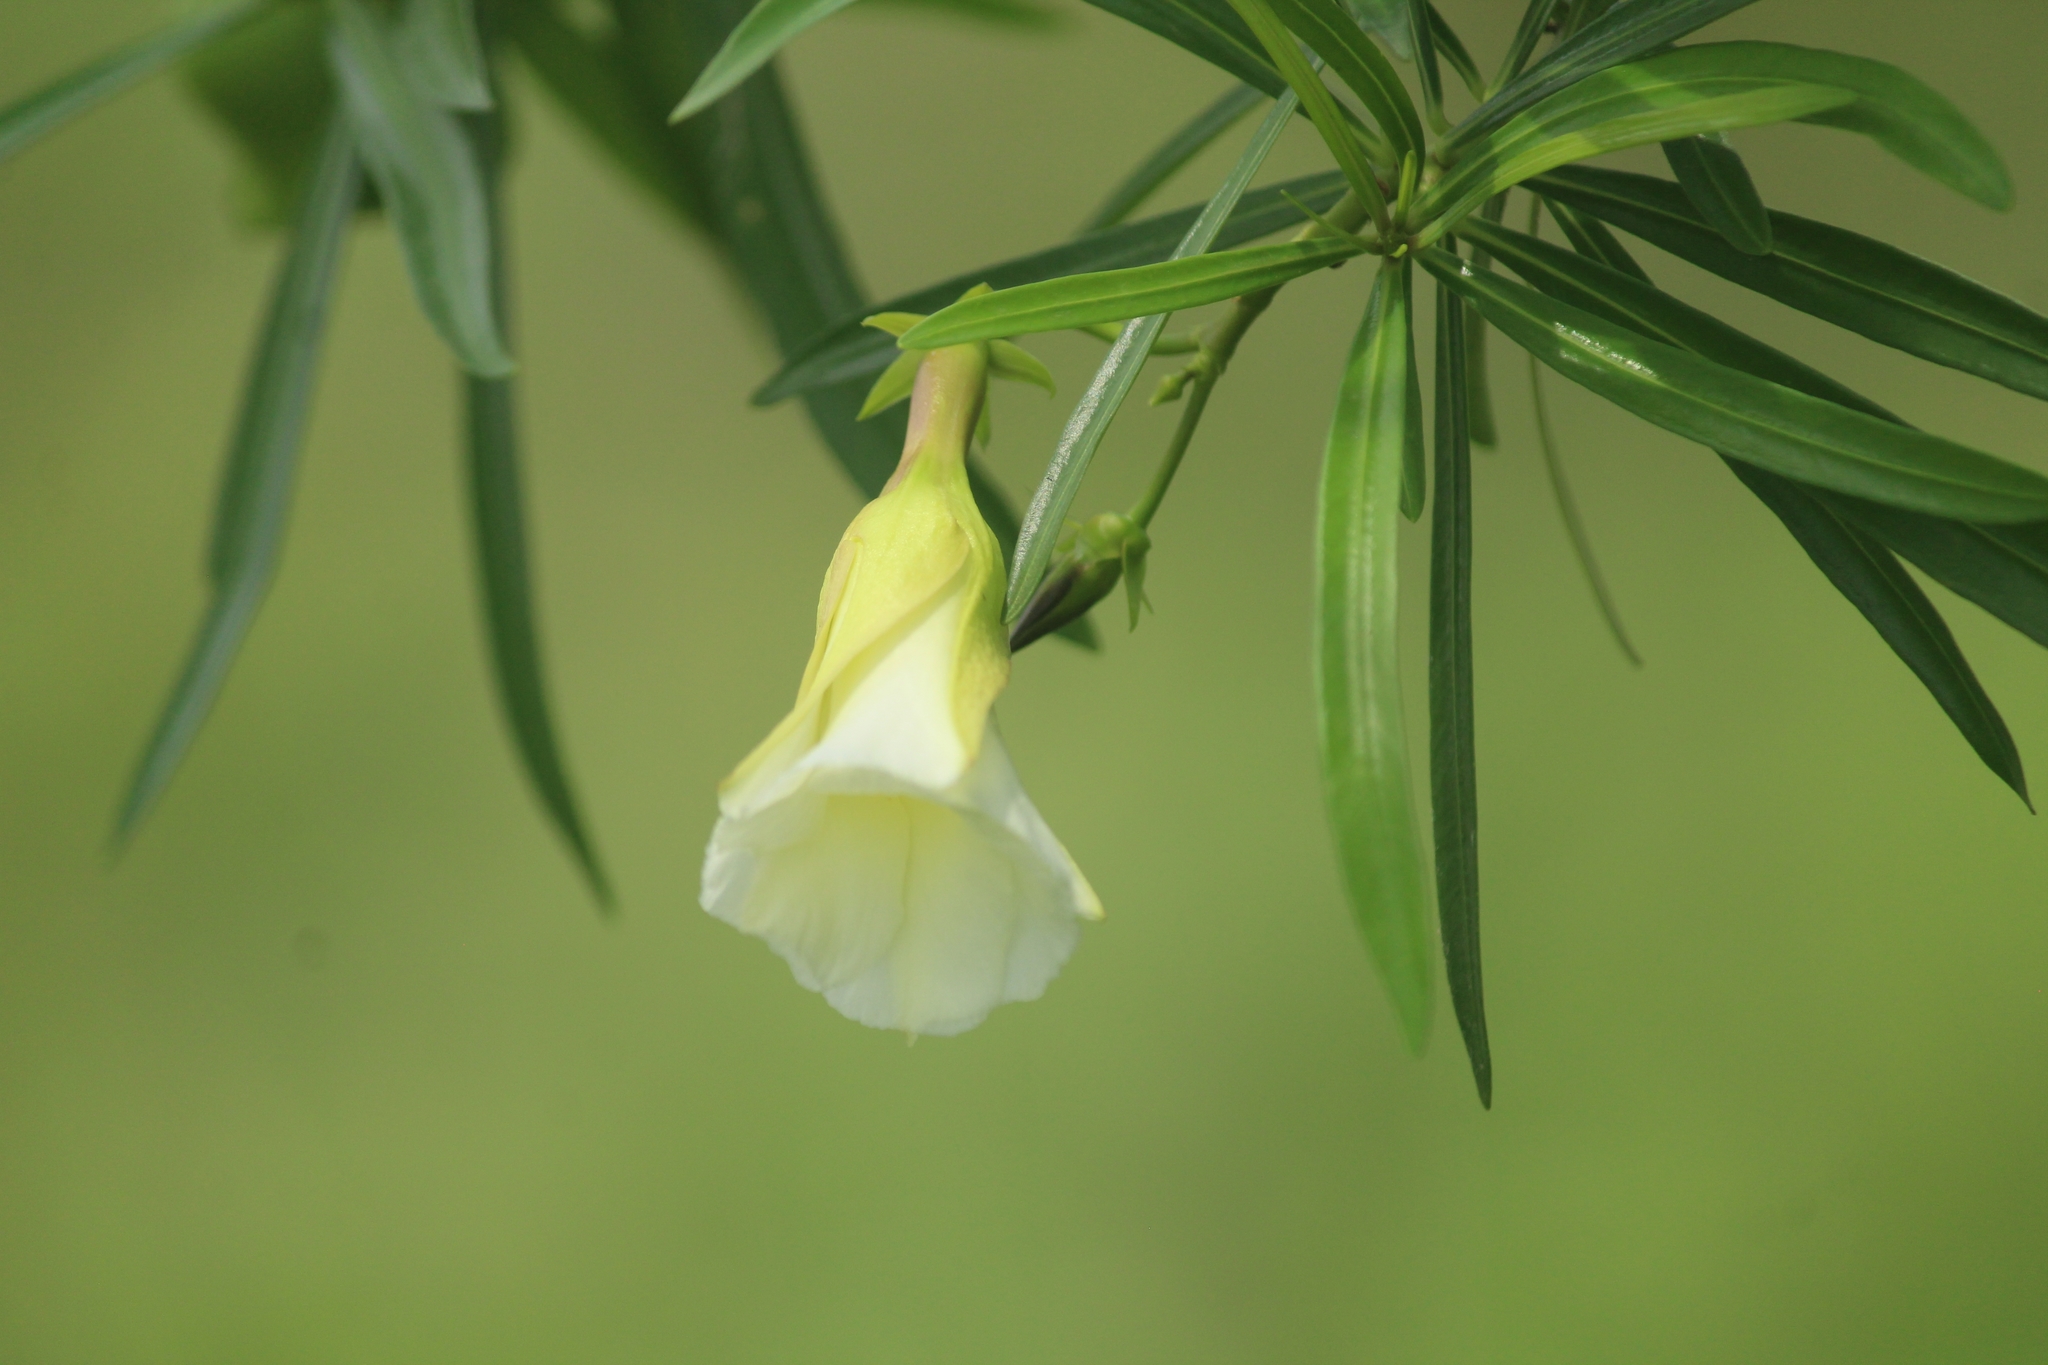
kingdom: Plantae
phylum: Tracheophyta
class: Magnoliopsida
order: Gentianales
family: Apocynaceae
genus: Cascabela
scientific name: Cascabela thevetia
